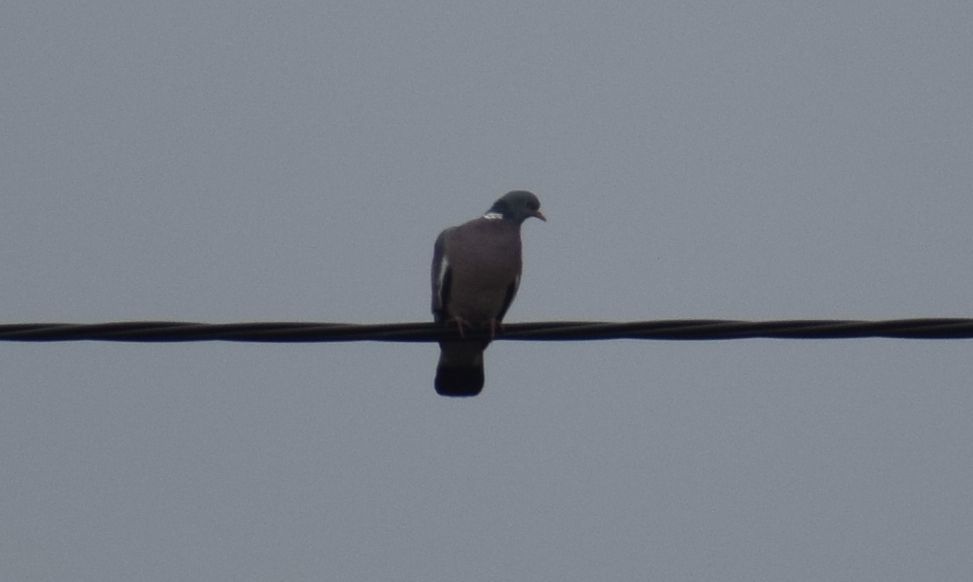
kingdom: Animalia
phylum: Chordata
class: Aves
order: Columbiformes
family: Columbidae
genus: Columba
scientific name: Columba palumbus
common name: Common wood pigeon
